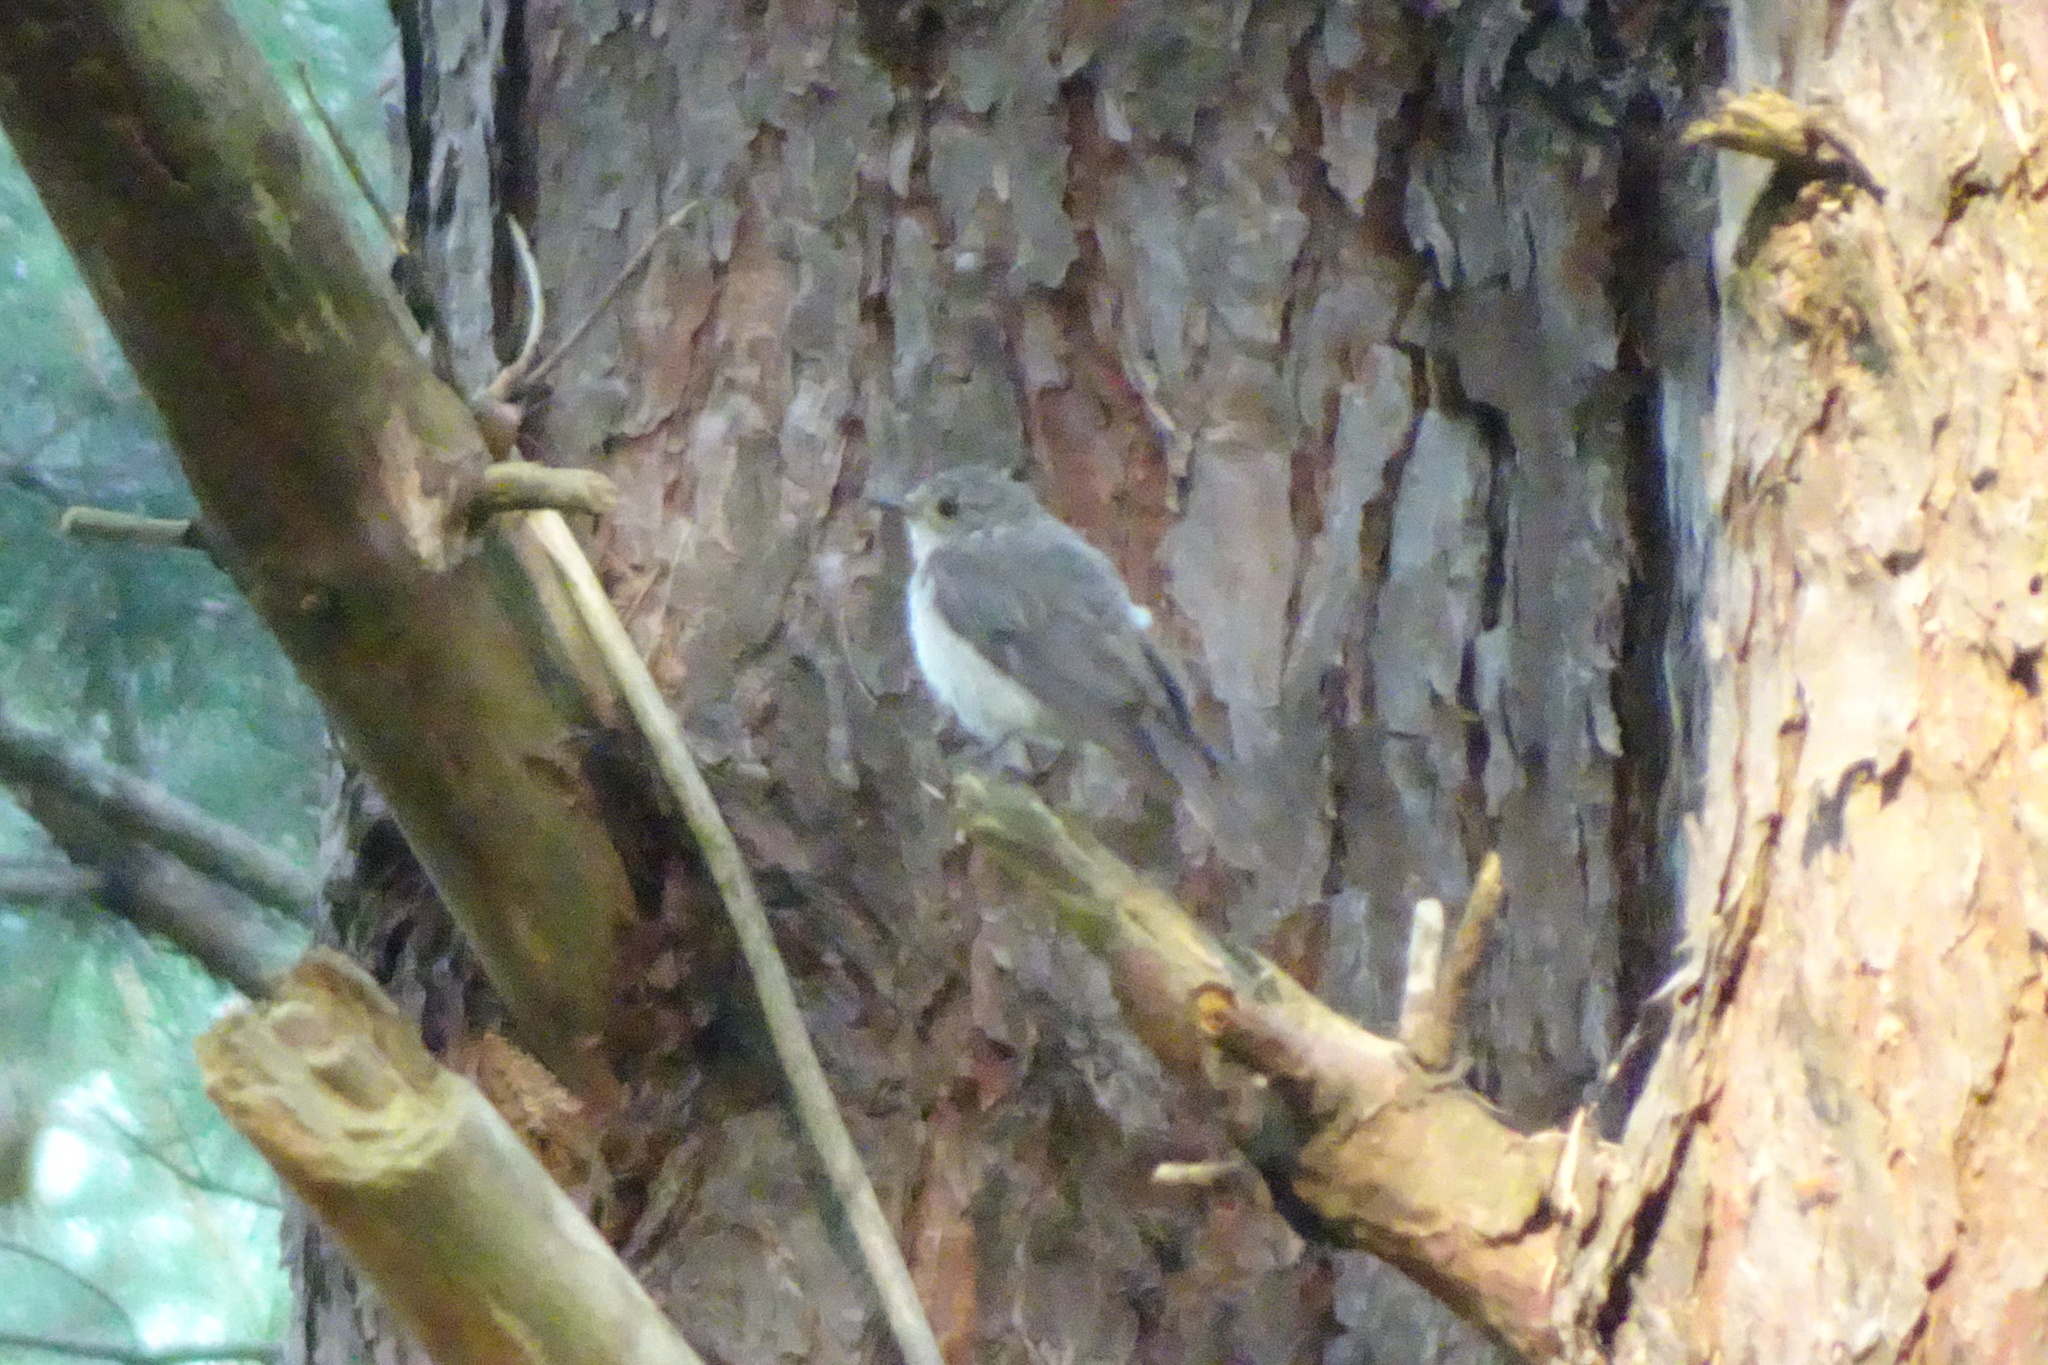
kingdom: Animalia
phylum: Chordata
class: Aves
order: Passeriformes
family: Muscicapidae
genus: Muscicapa
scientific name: Muscicapa striata
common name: Spotted flycatcher
